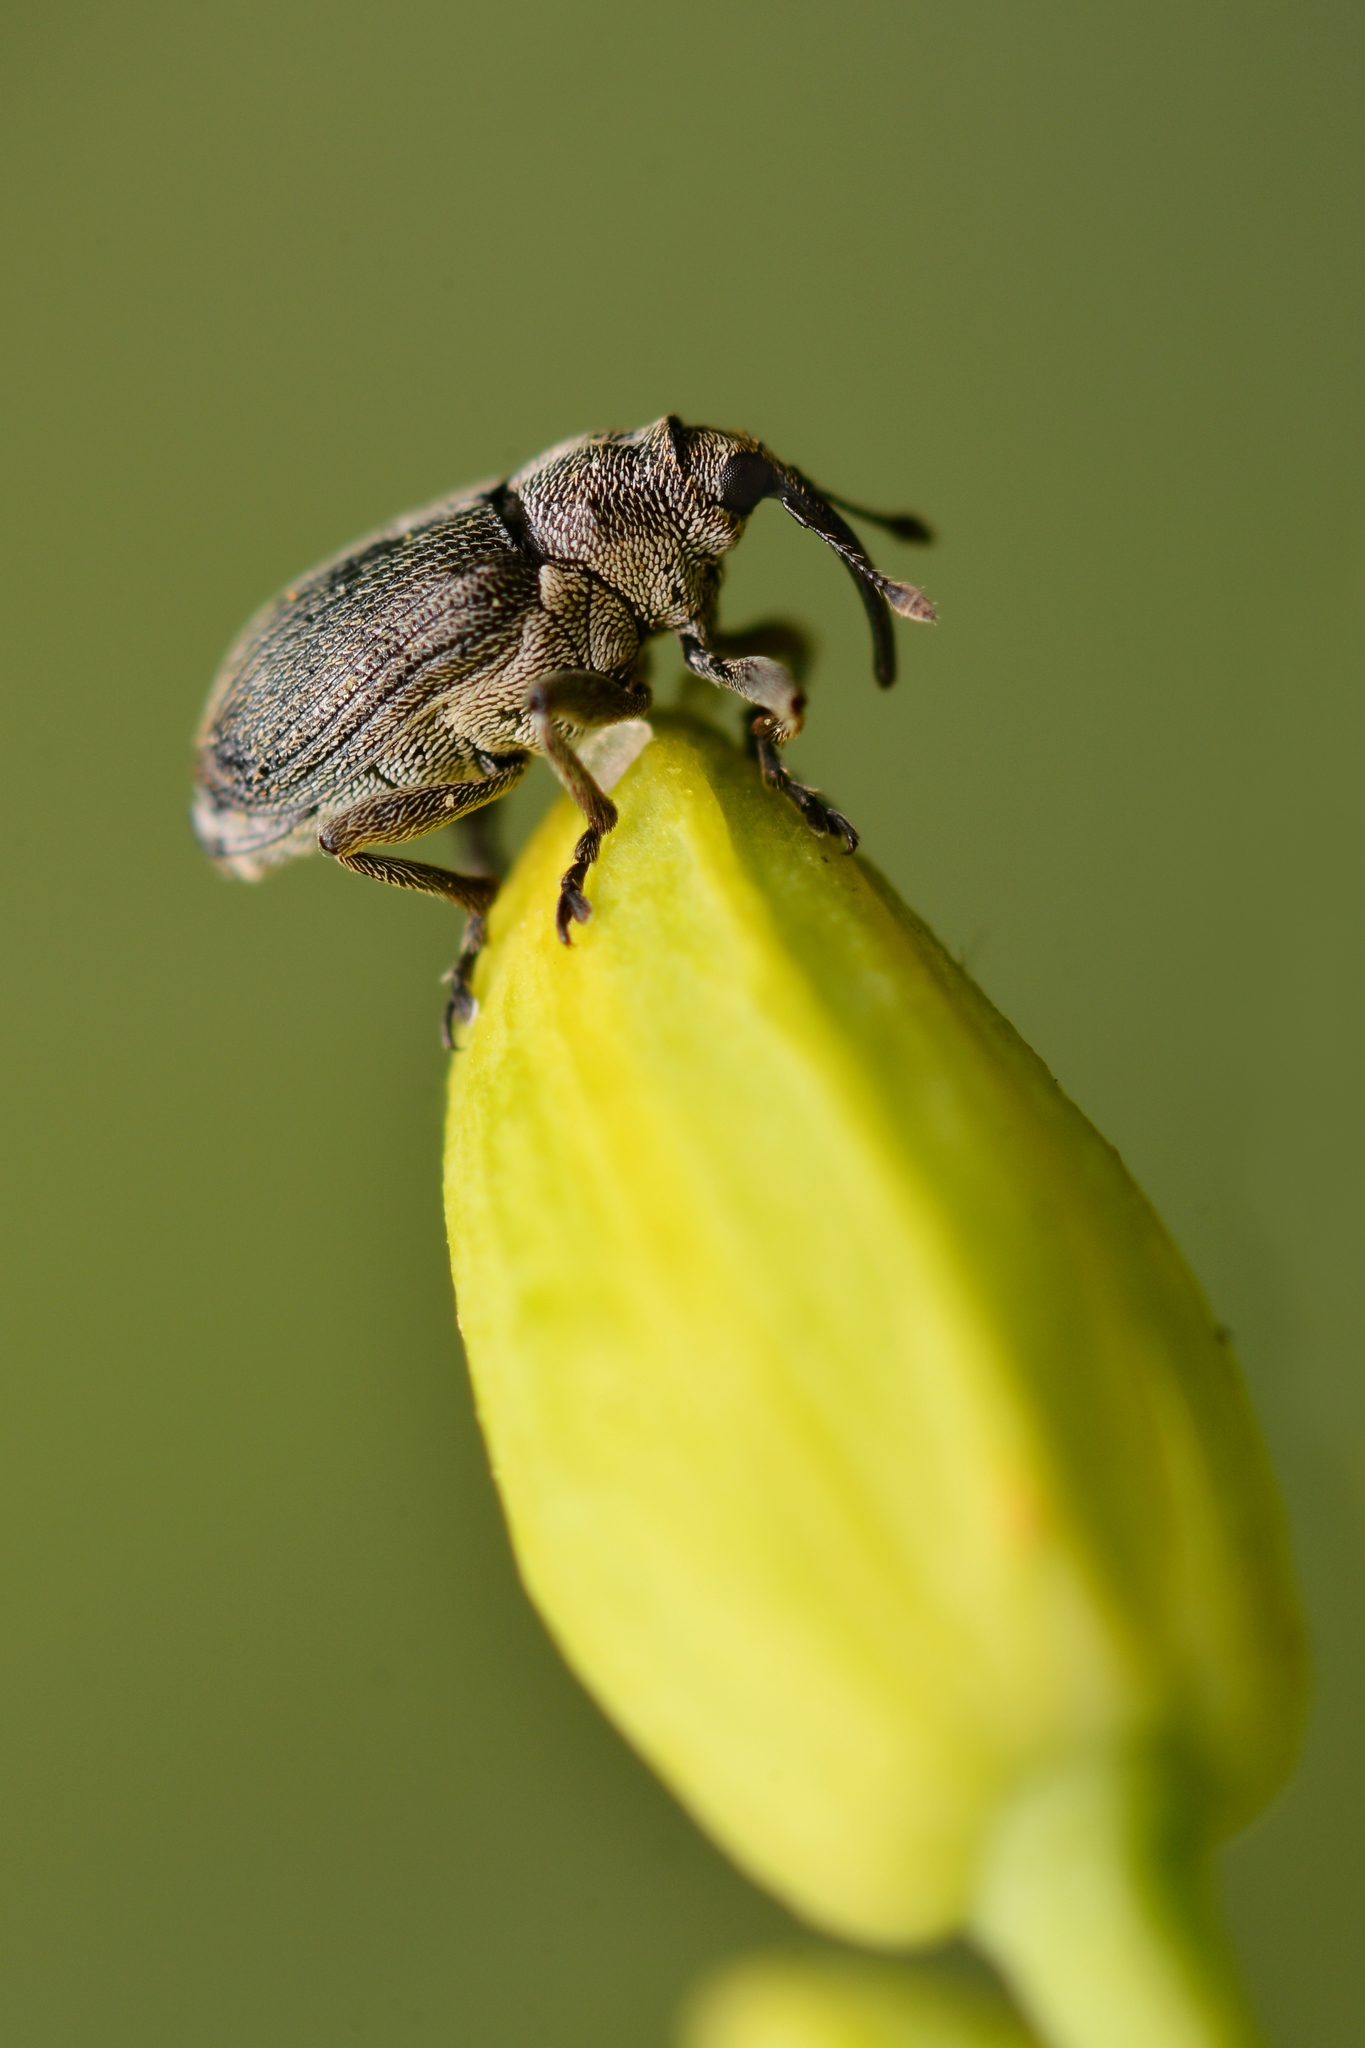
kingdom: Animalia
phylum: Arthropoda
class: Insecta
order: Coleoptera
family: Curculionidae
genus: Ceutorhynchus
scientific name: Ceutorhynchus obstrictus
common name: Cabbage seed weevil
